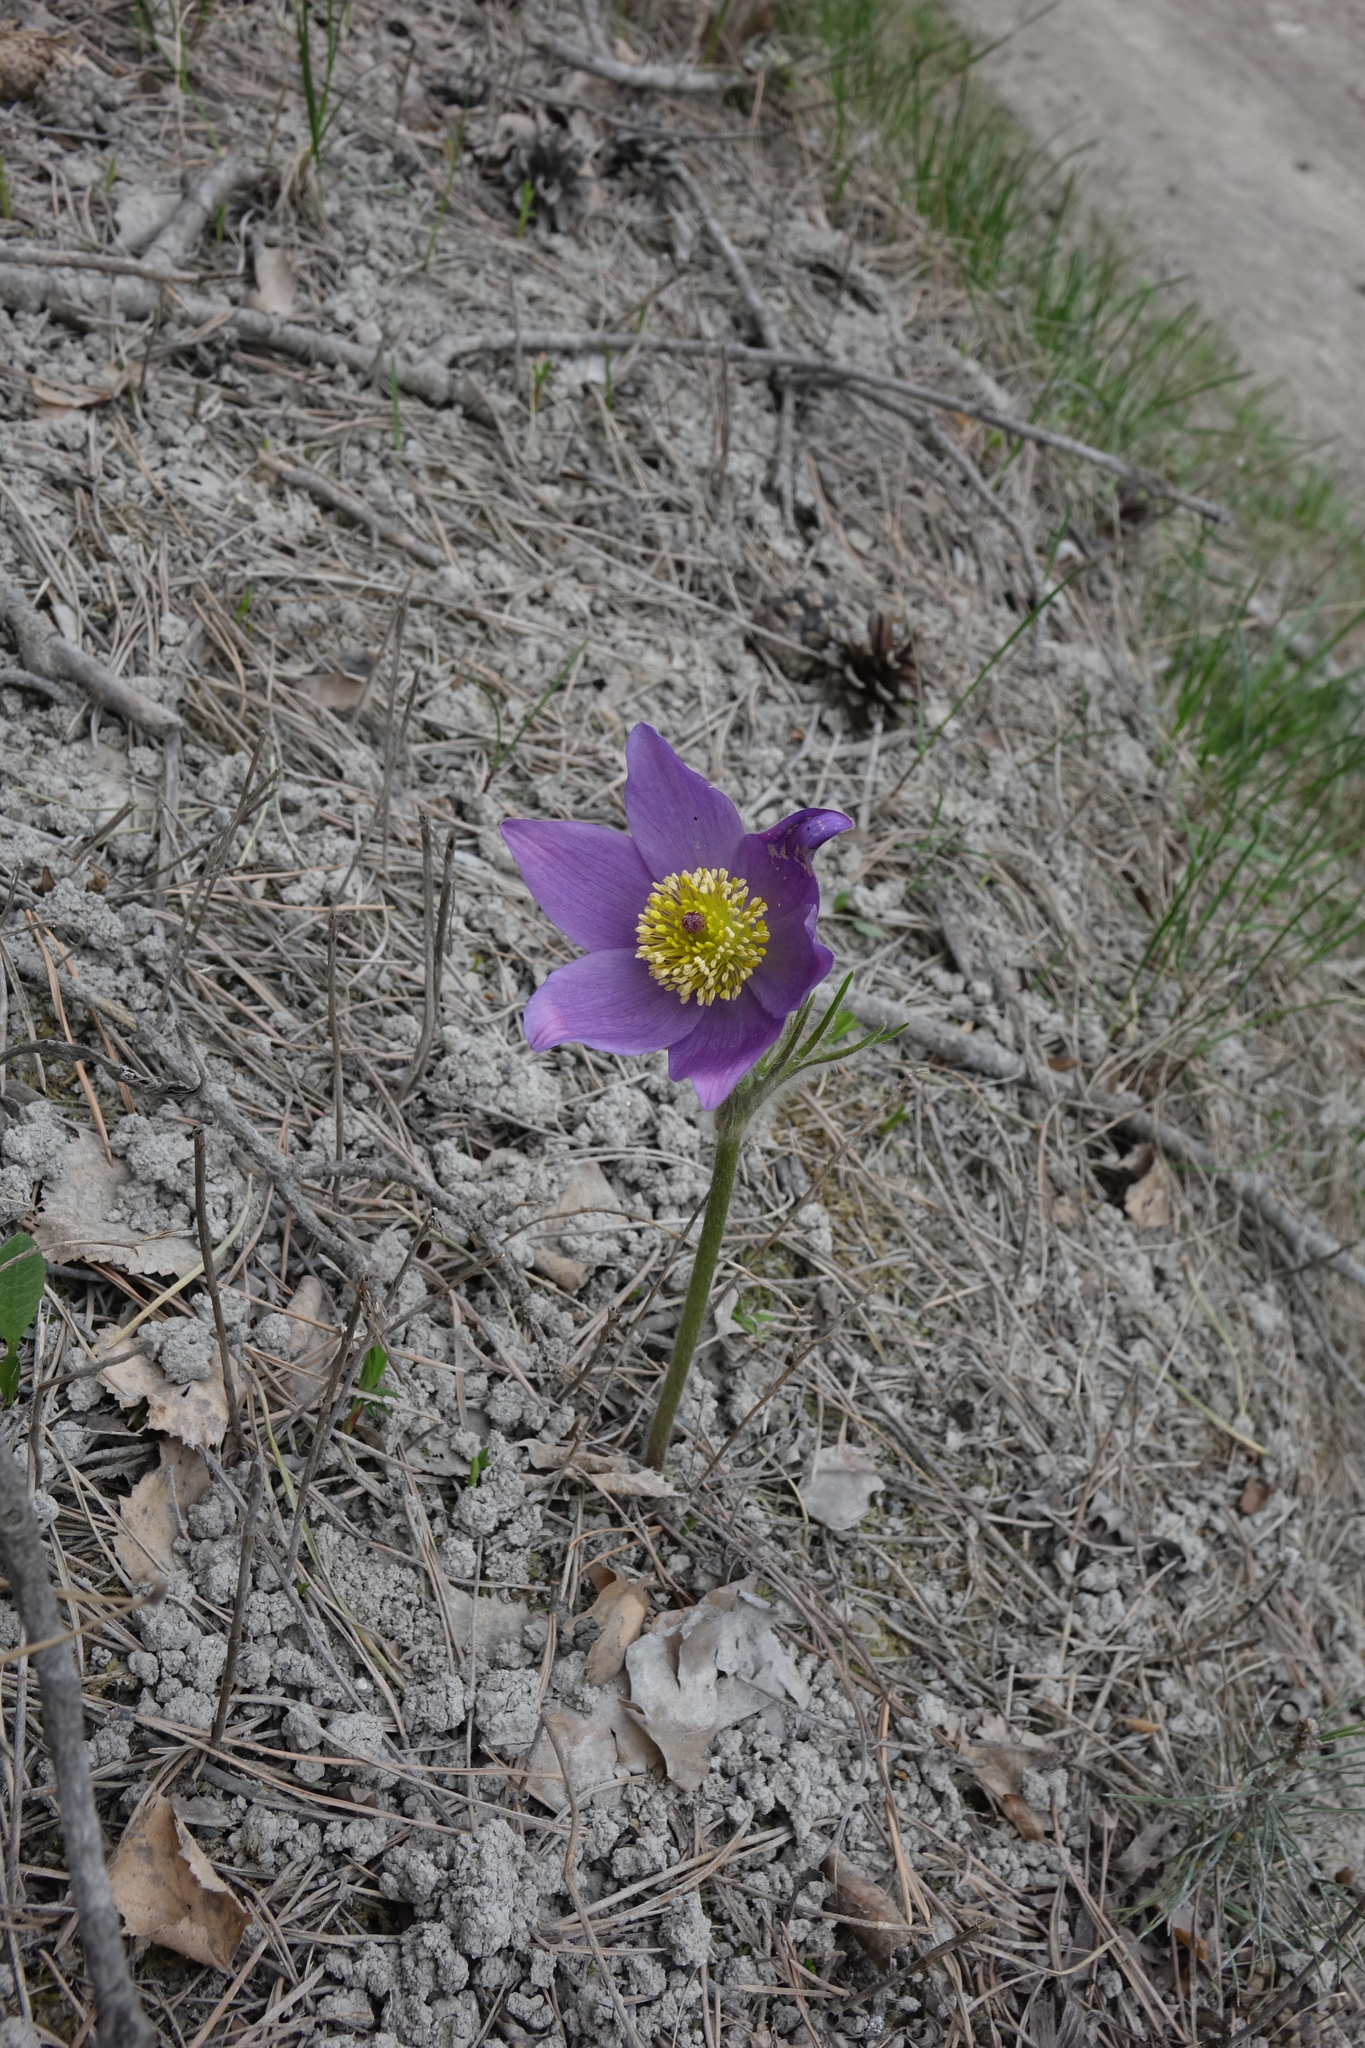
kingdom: Plantae
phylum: Tracheophyta
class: Magnoliopsida
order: Ranunculales
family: Ranunculaceae
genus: Pulsatilla
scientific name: Pulsatilla patens
